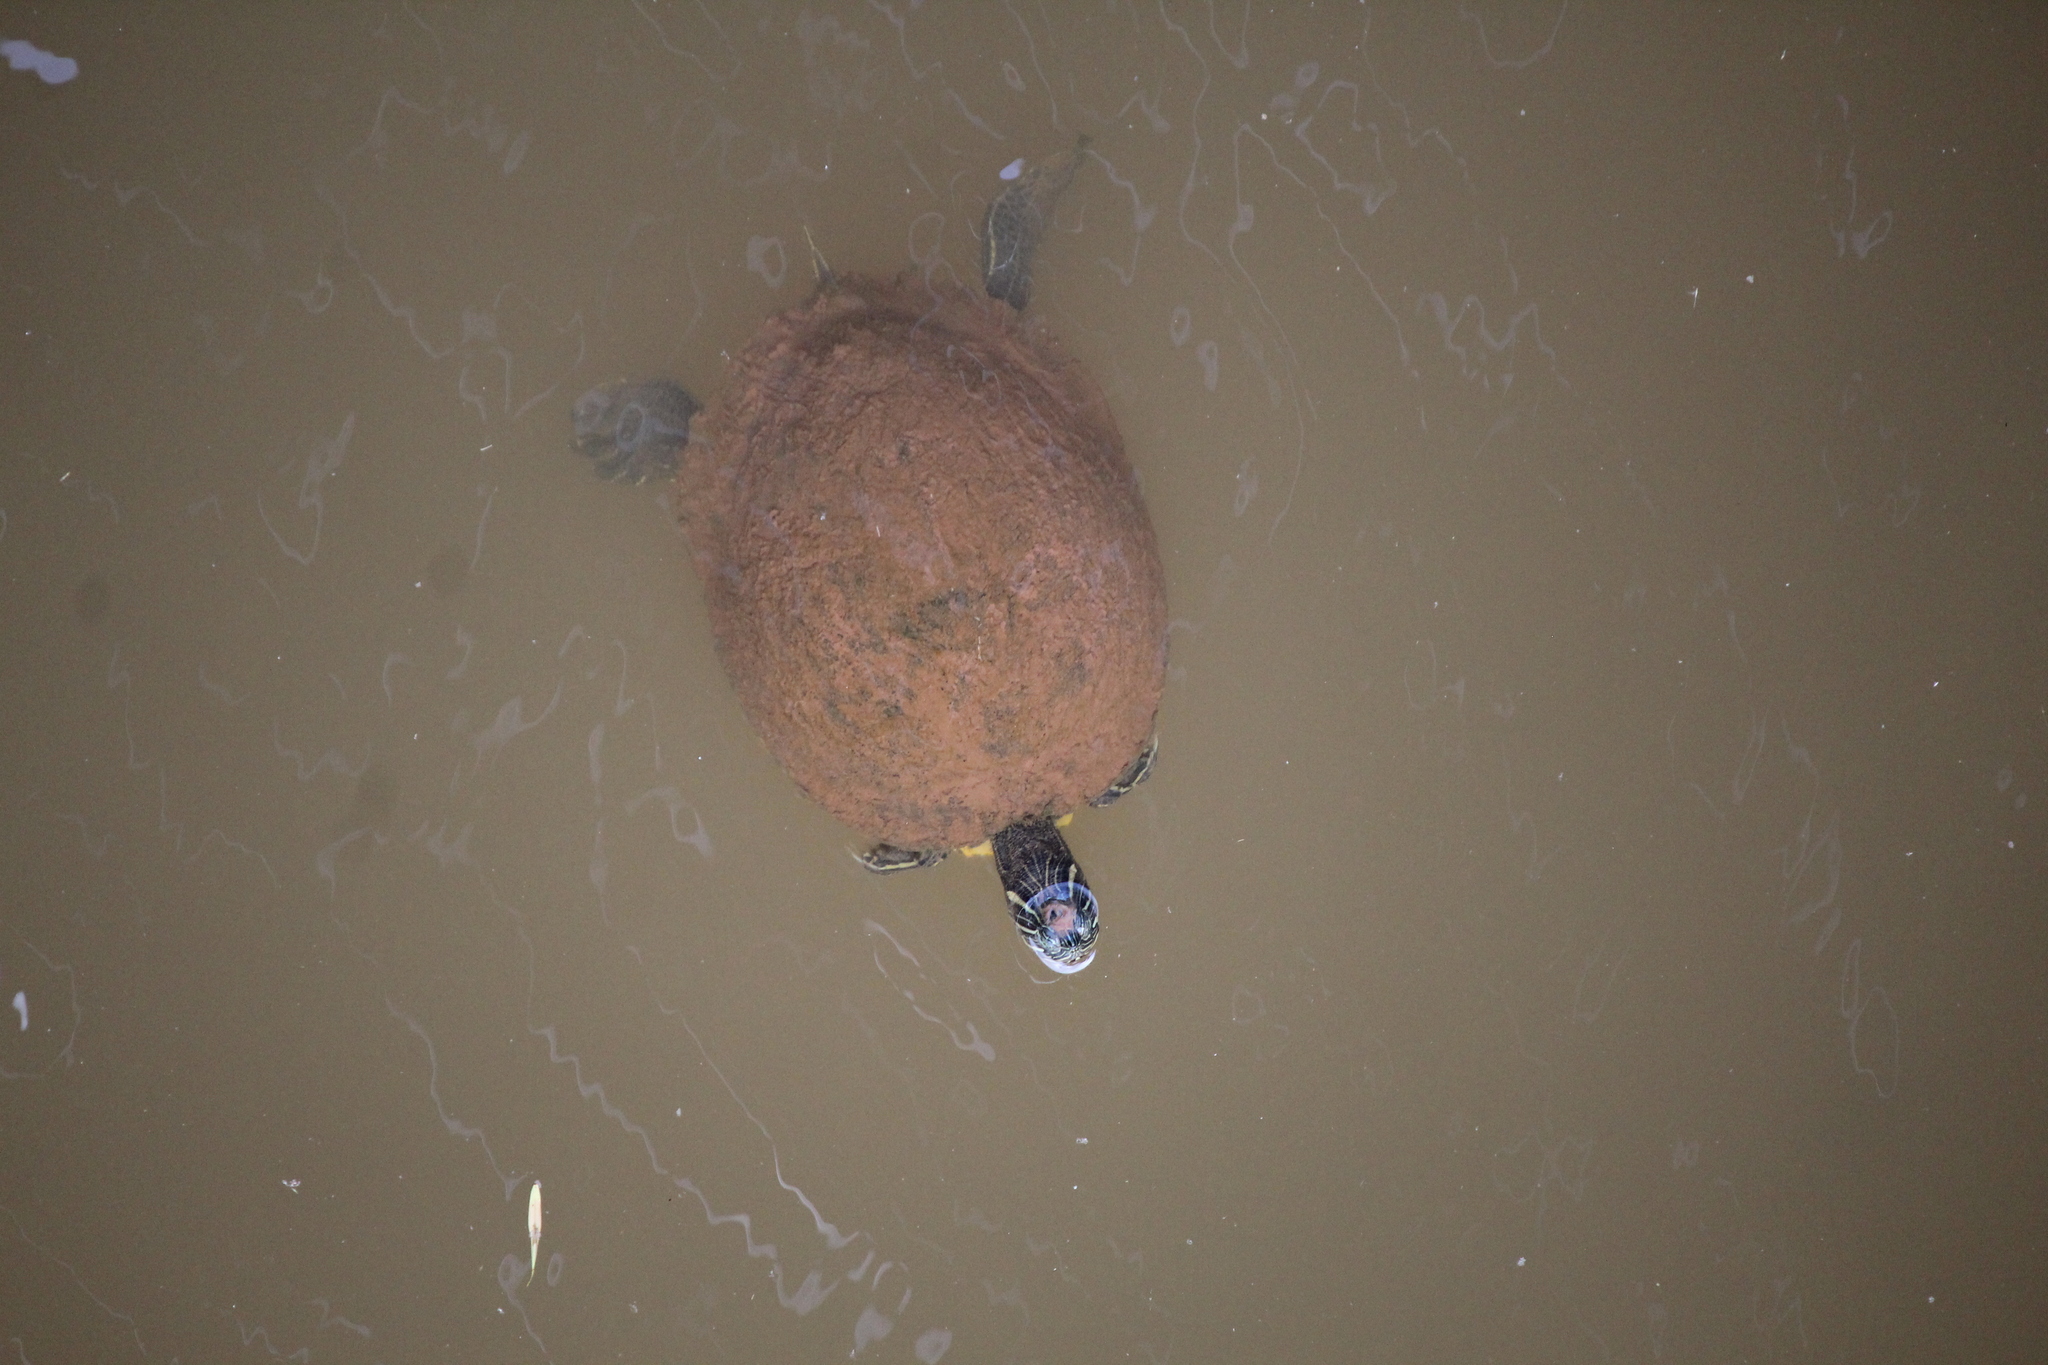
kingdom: Animalia
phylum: Chordata
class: Testudines
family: Emydidae
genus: Pseudemys
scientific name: Pseudemys concinna
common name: Eastern river cooter
